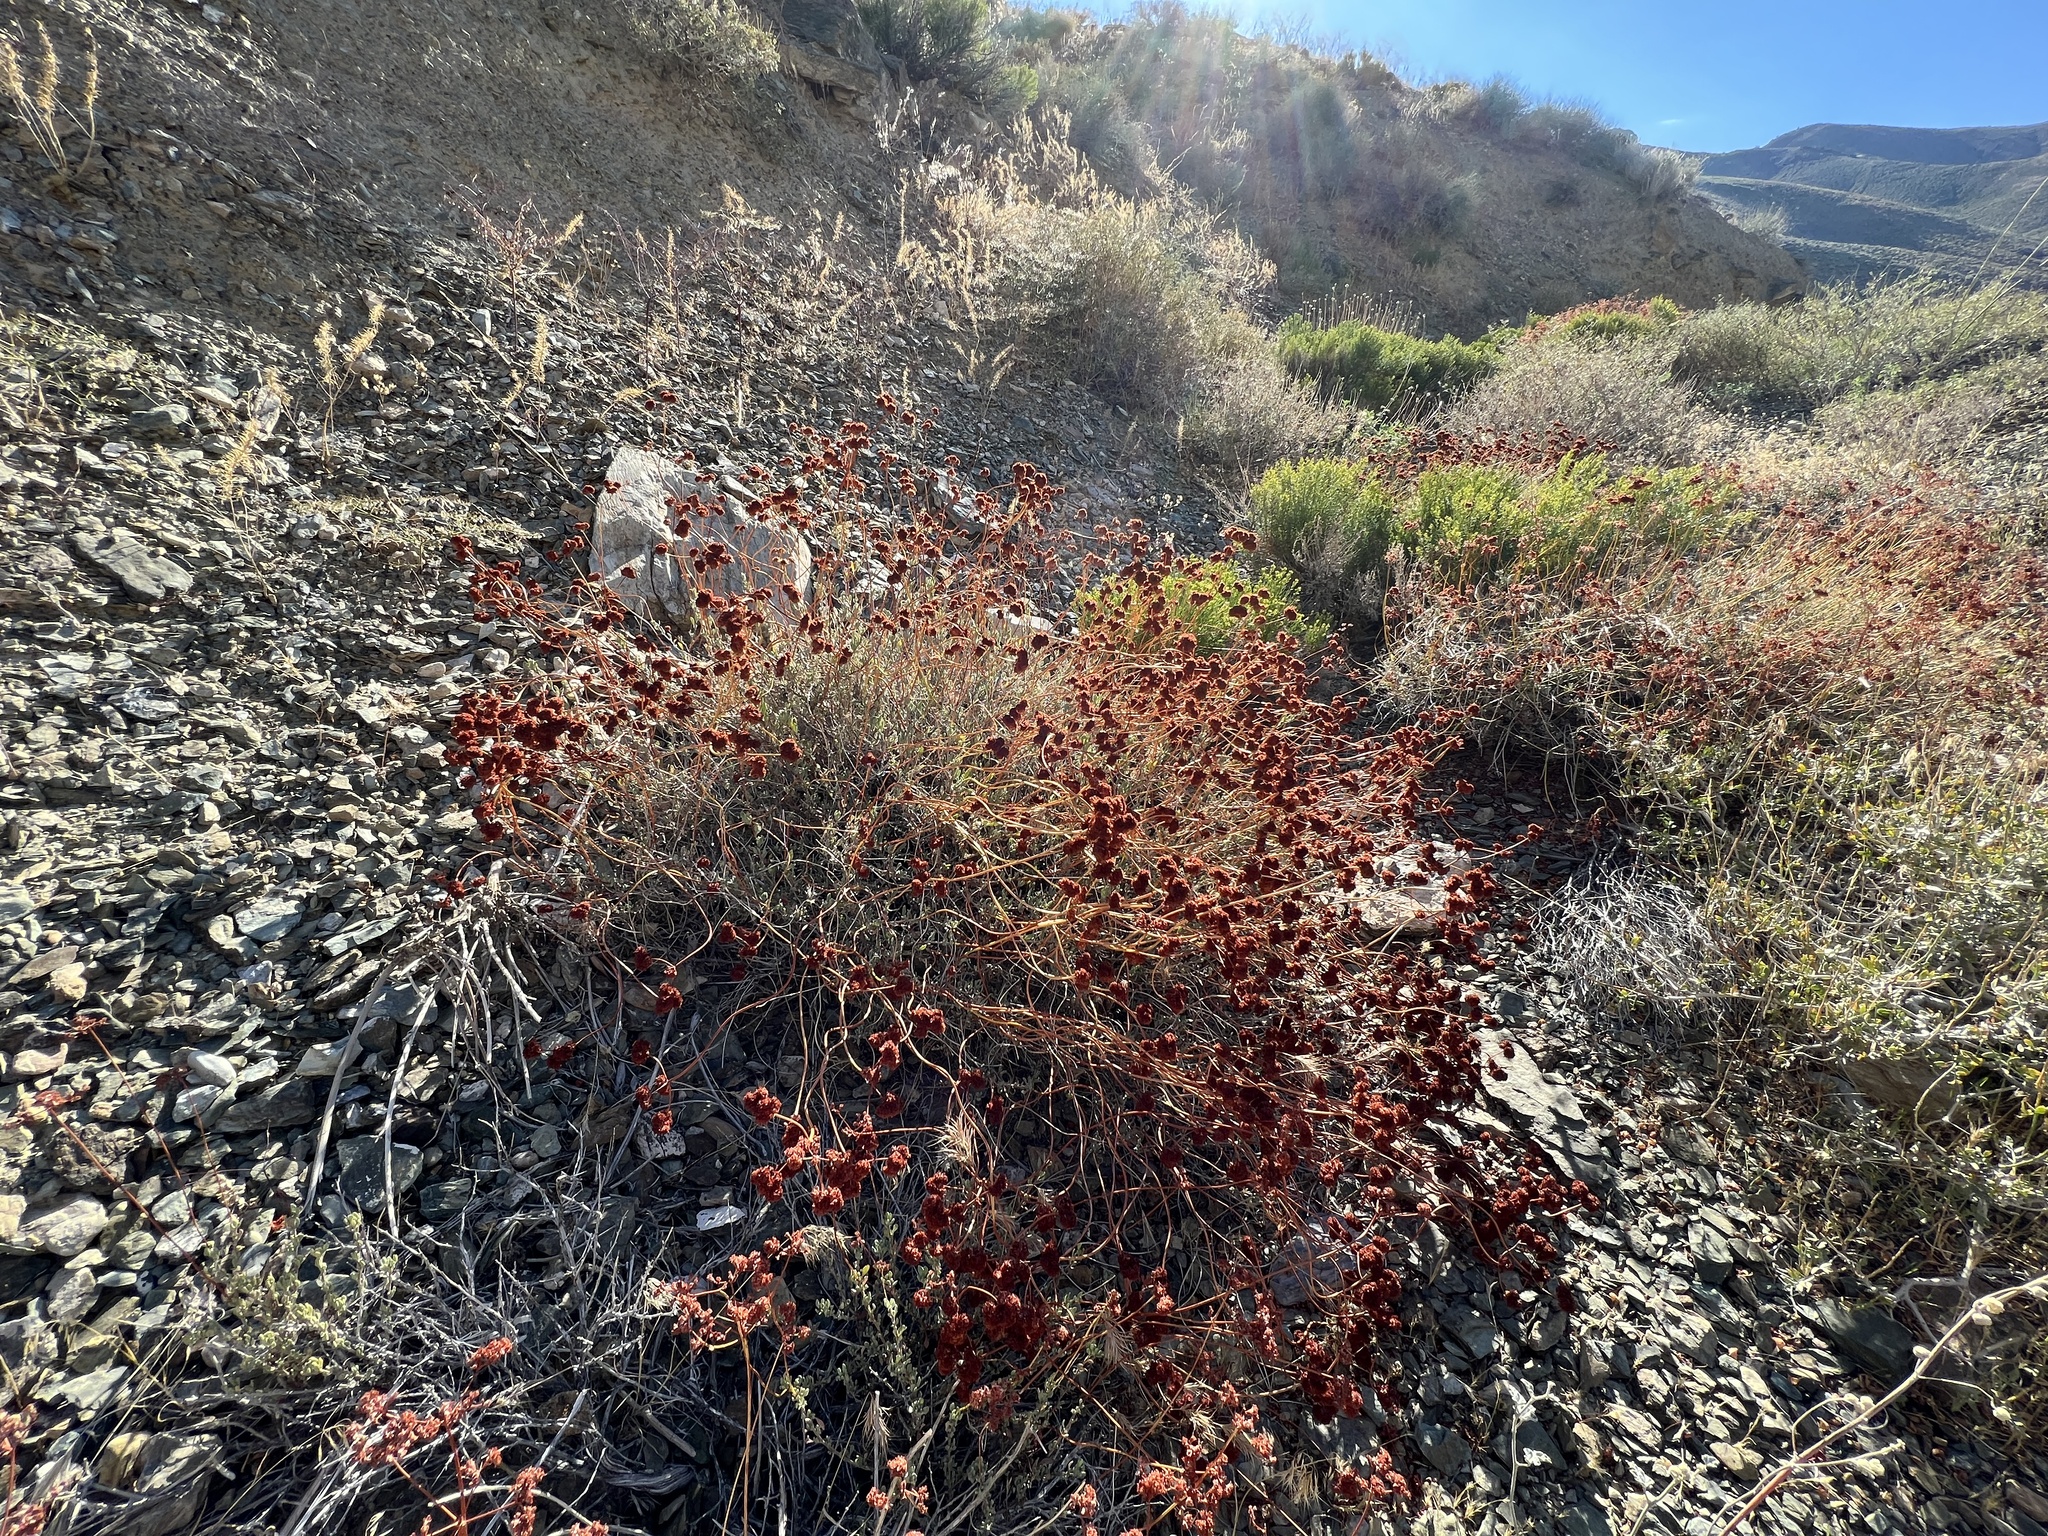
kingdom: Plantae
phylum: Tracheophyta
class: Magnoliopsida
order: Caryophyllales
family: Polygonaceae
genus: Eriogonum
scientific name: Eriogonum fasciculatum
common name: California wild buckwheat
